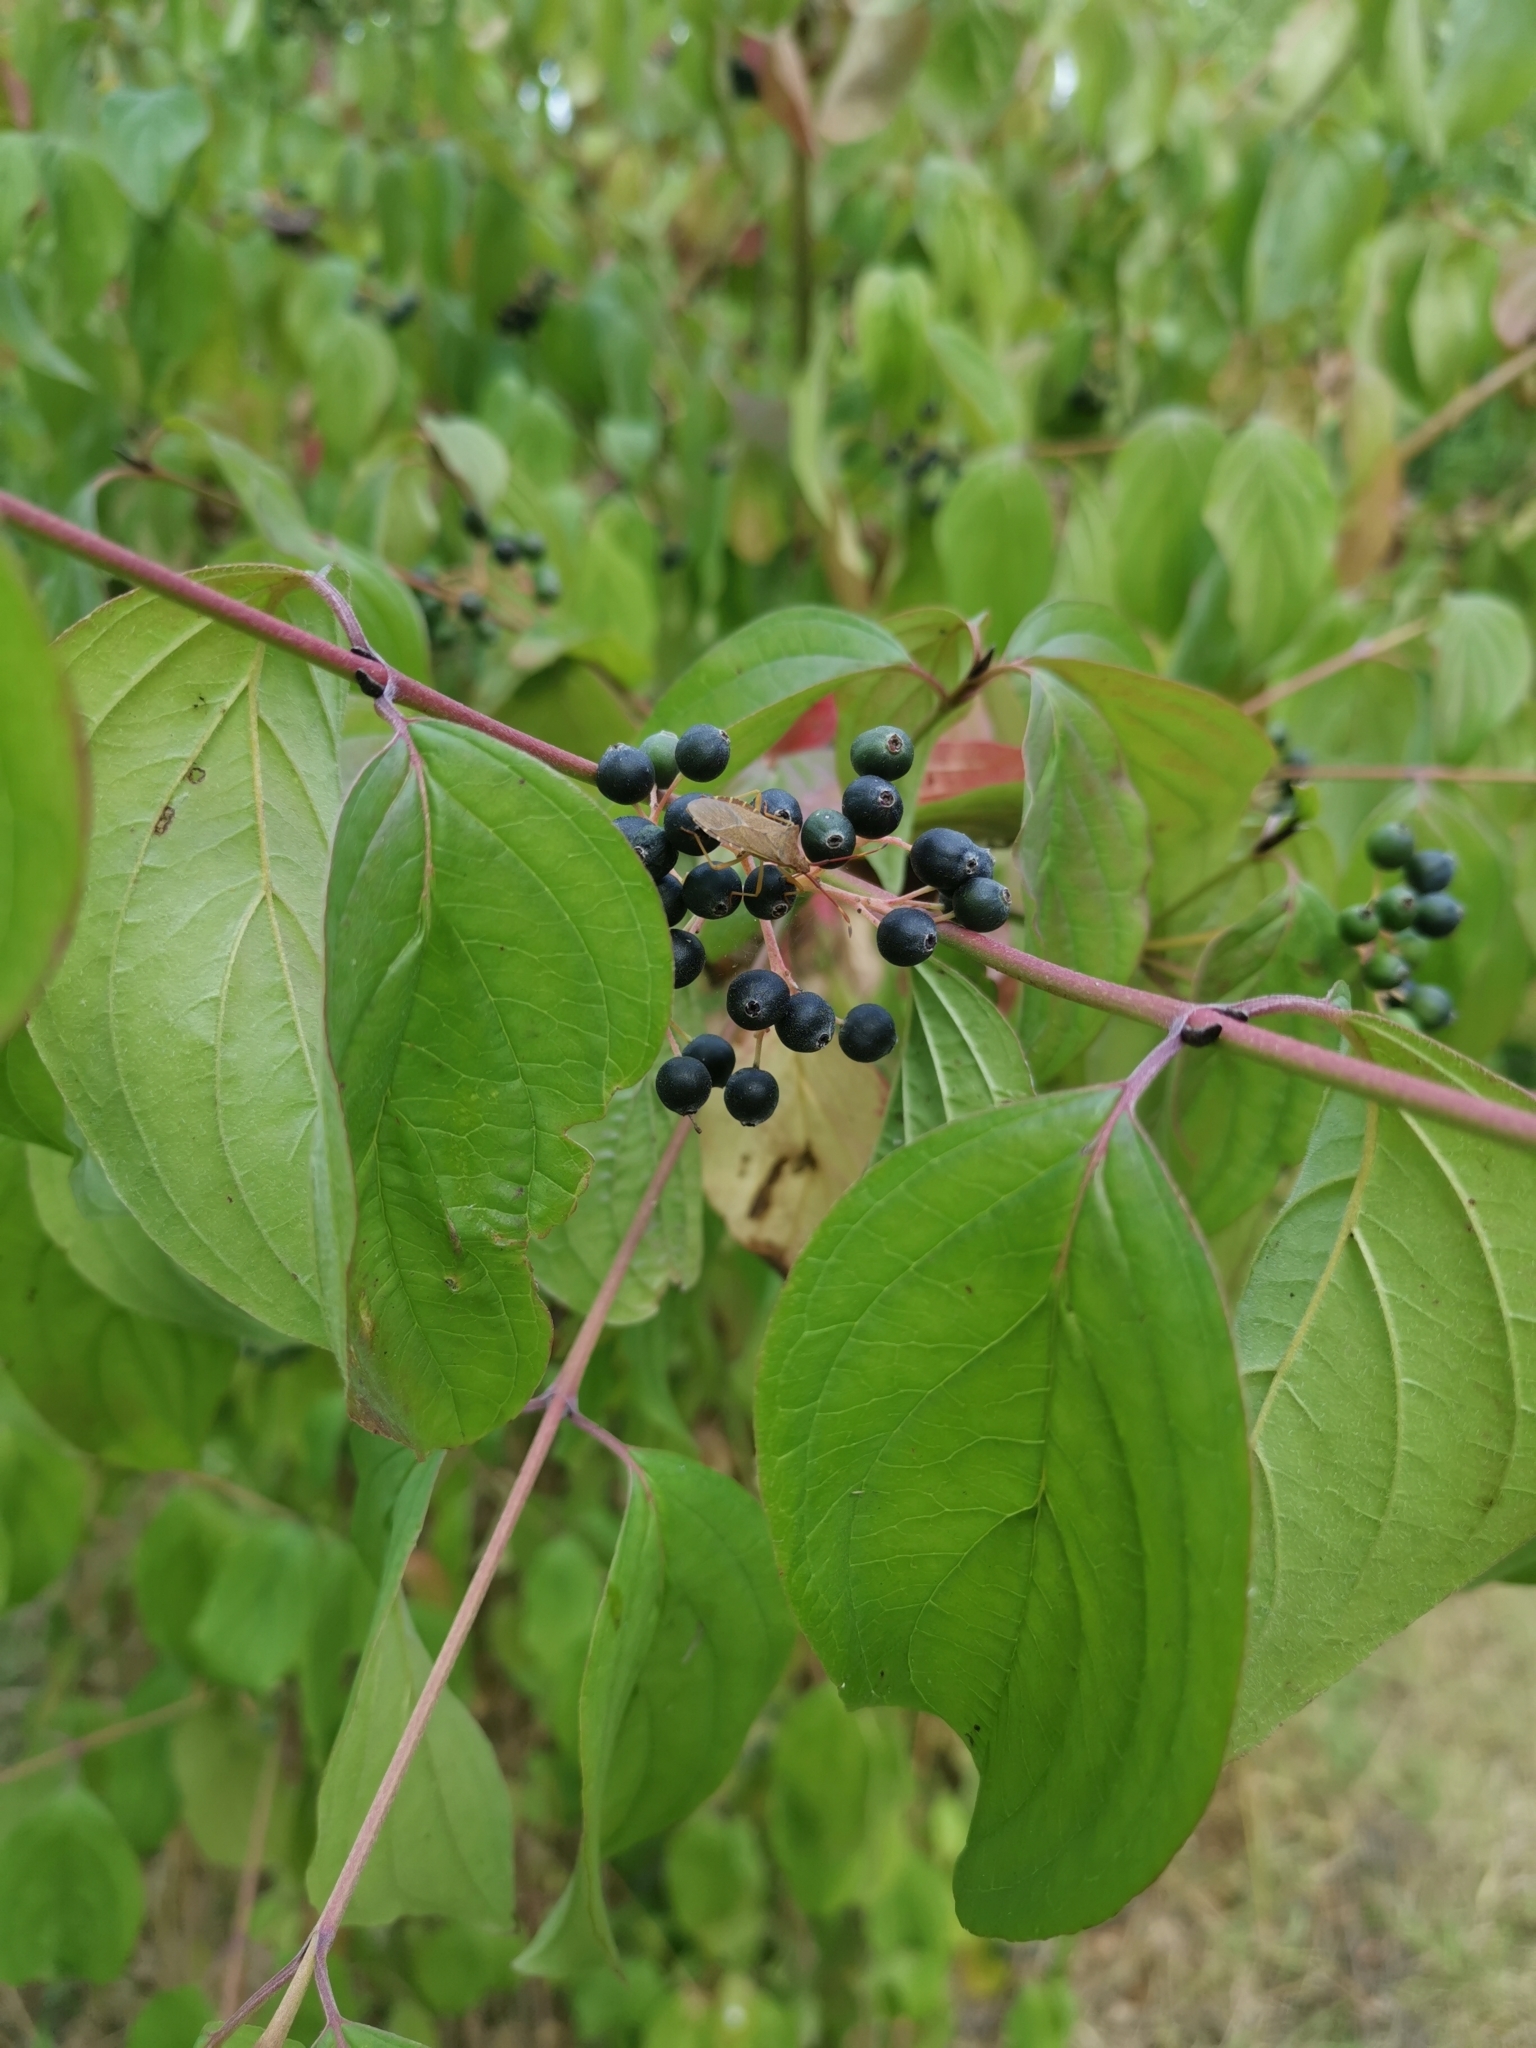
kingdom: Plantae
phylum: Tracheophyta
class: Magnoliopsida
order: Cornales
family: Cornaceae
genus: Cornus
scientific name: Cornus sanguinea
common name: Dogwood
